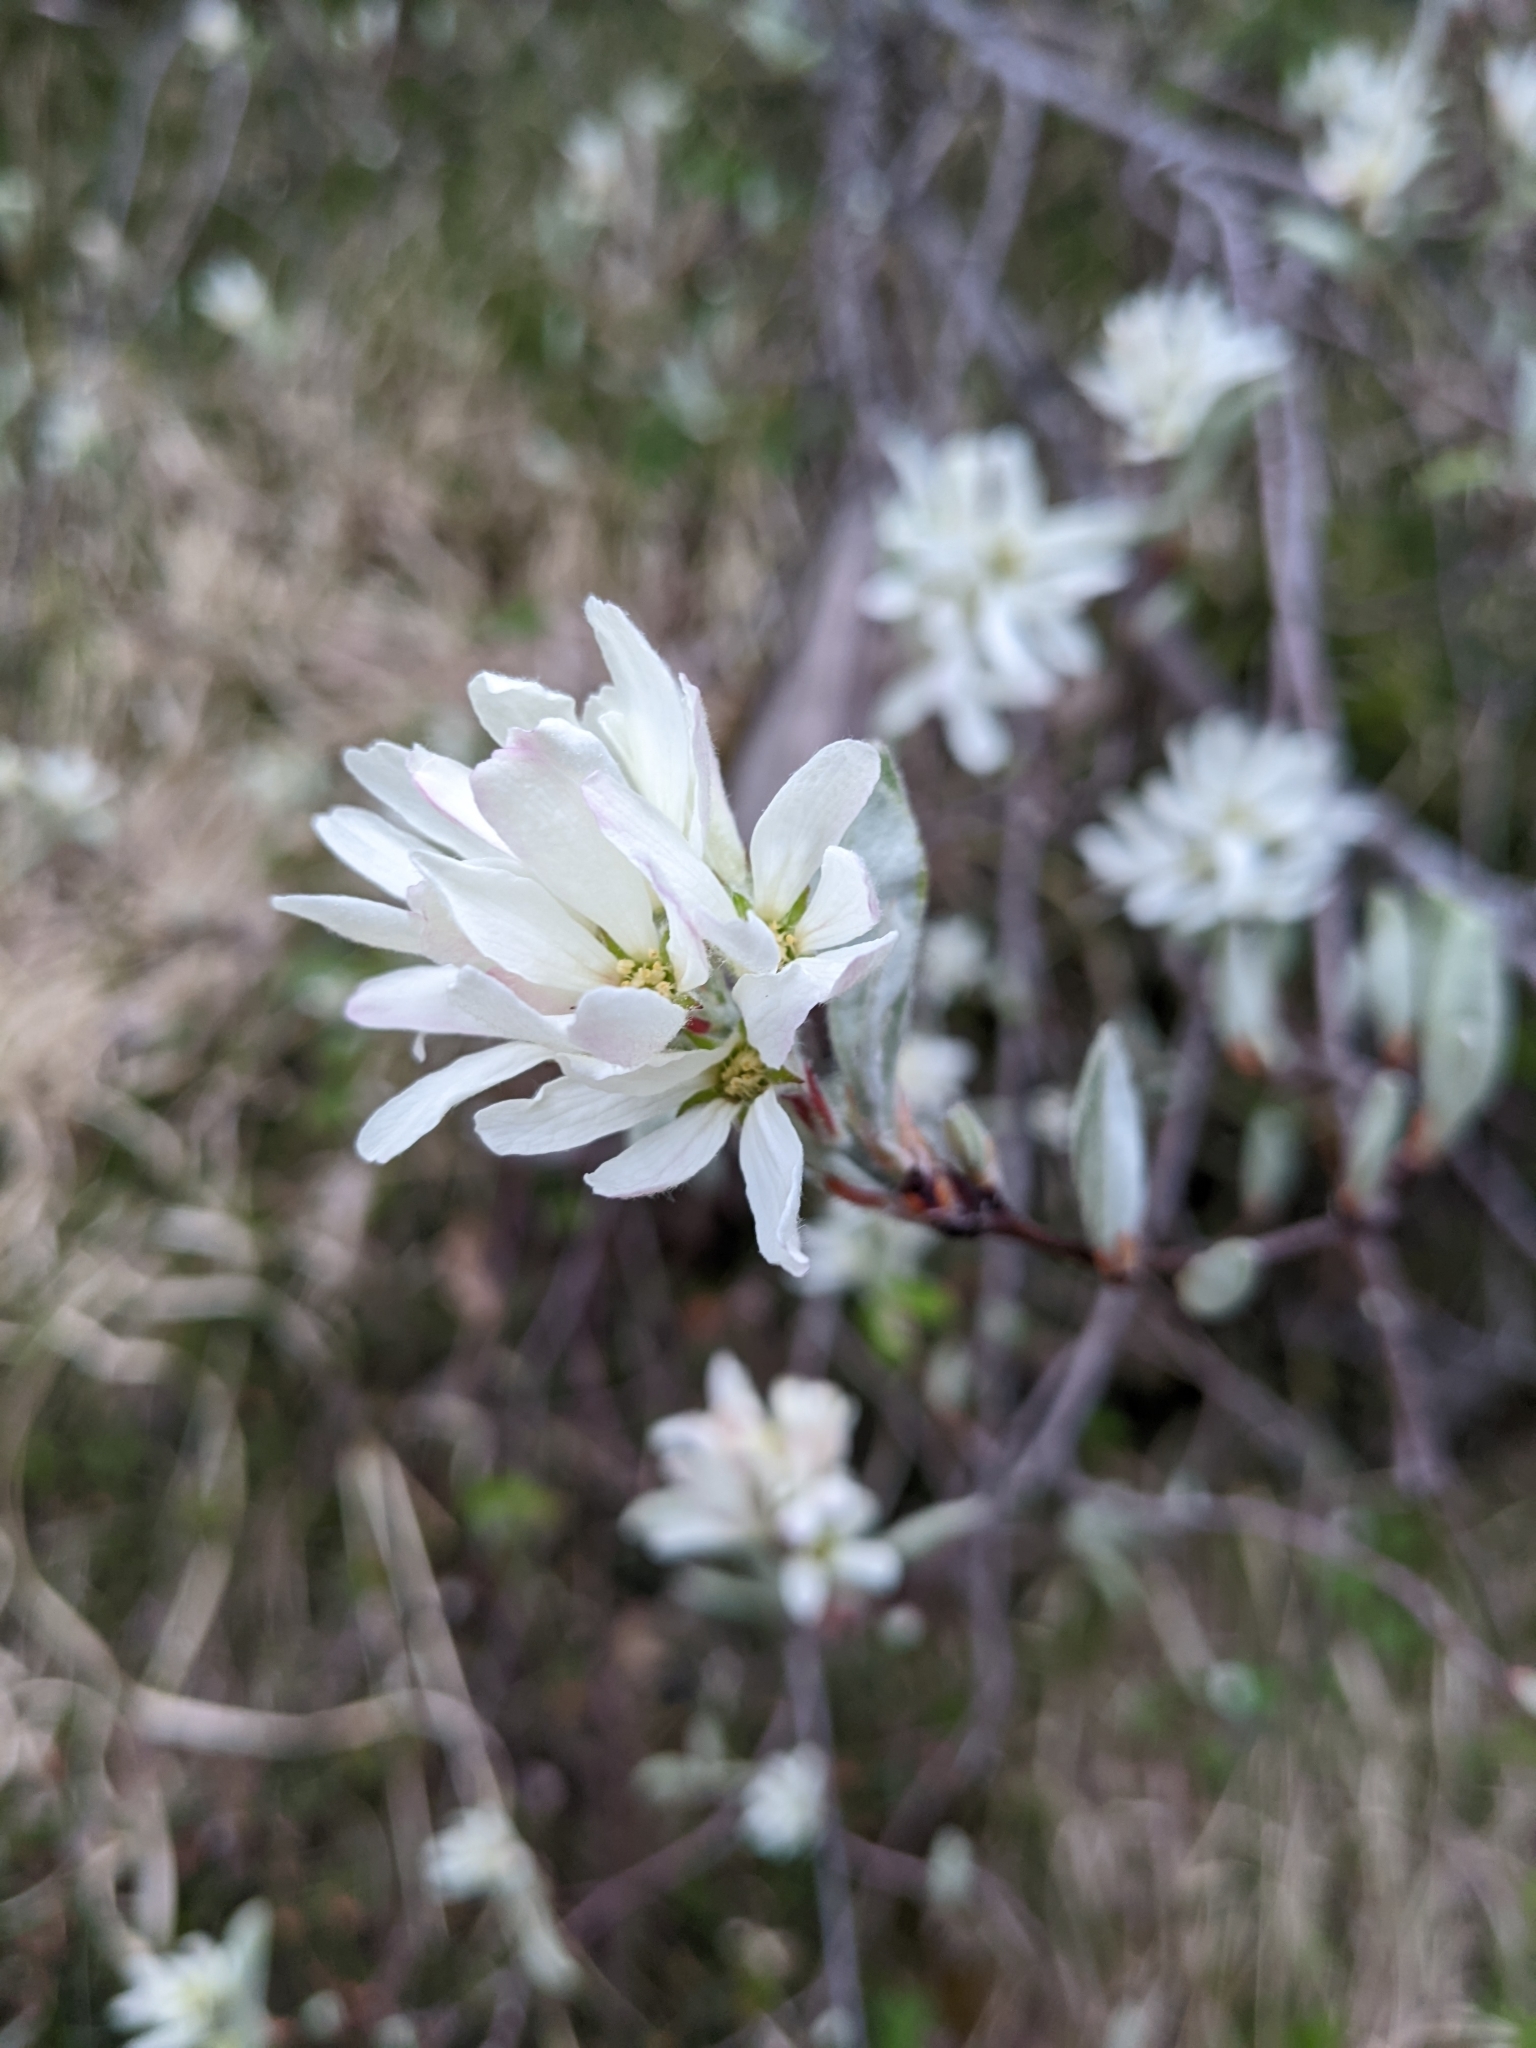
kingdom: Plantae
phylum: Tracheophyta
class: Magnoliopsida
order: Rosales
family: Rosaceae
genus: Amelanchier
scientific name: Amelanchier ovalis
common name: Serviceberry
